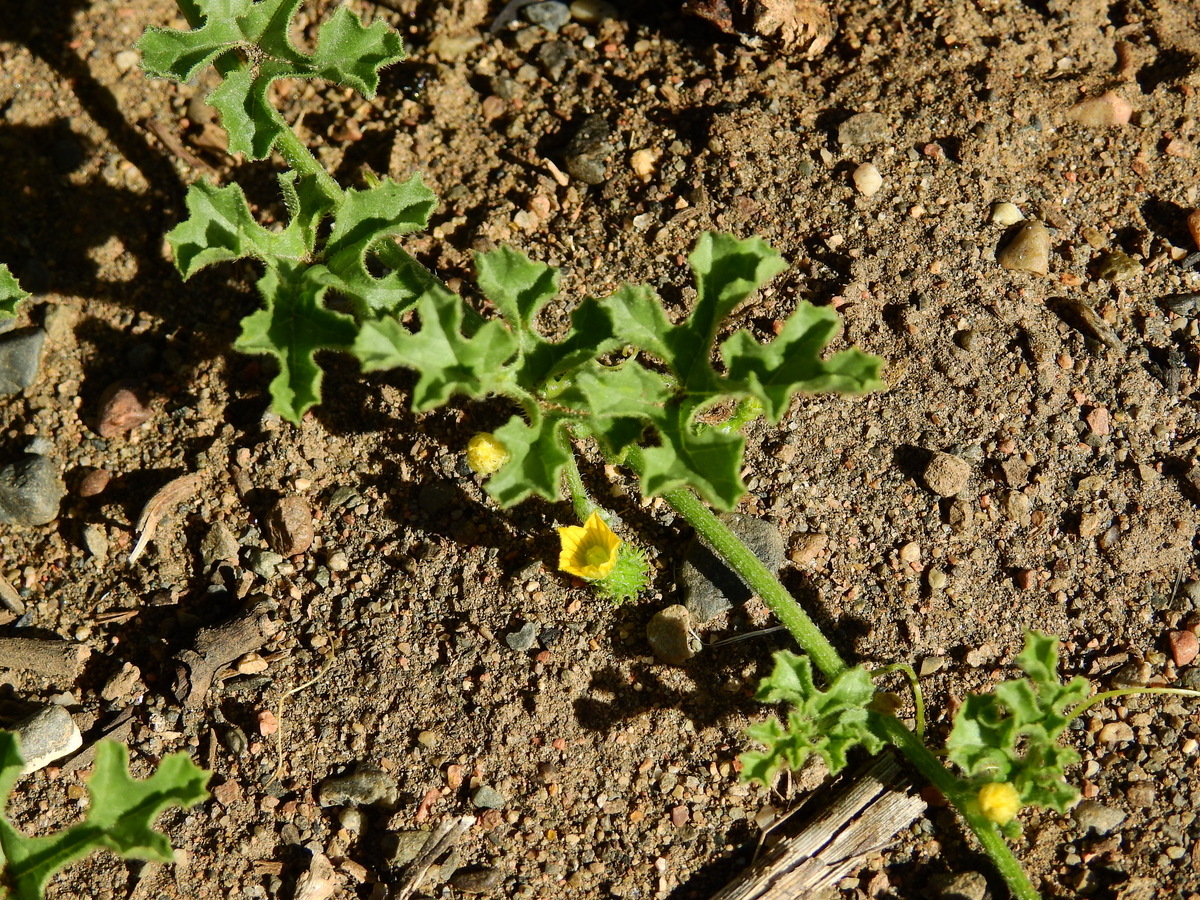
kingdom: Plantae
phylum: Tracheophyta
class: Magnoliopsida
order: Cucurbitales
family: Cucurbitaceae
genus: Cucumis
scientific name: Cucumis myriocarpus
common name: Gooseberry cucumber
